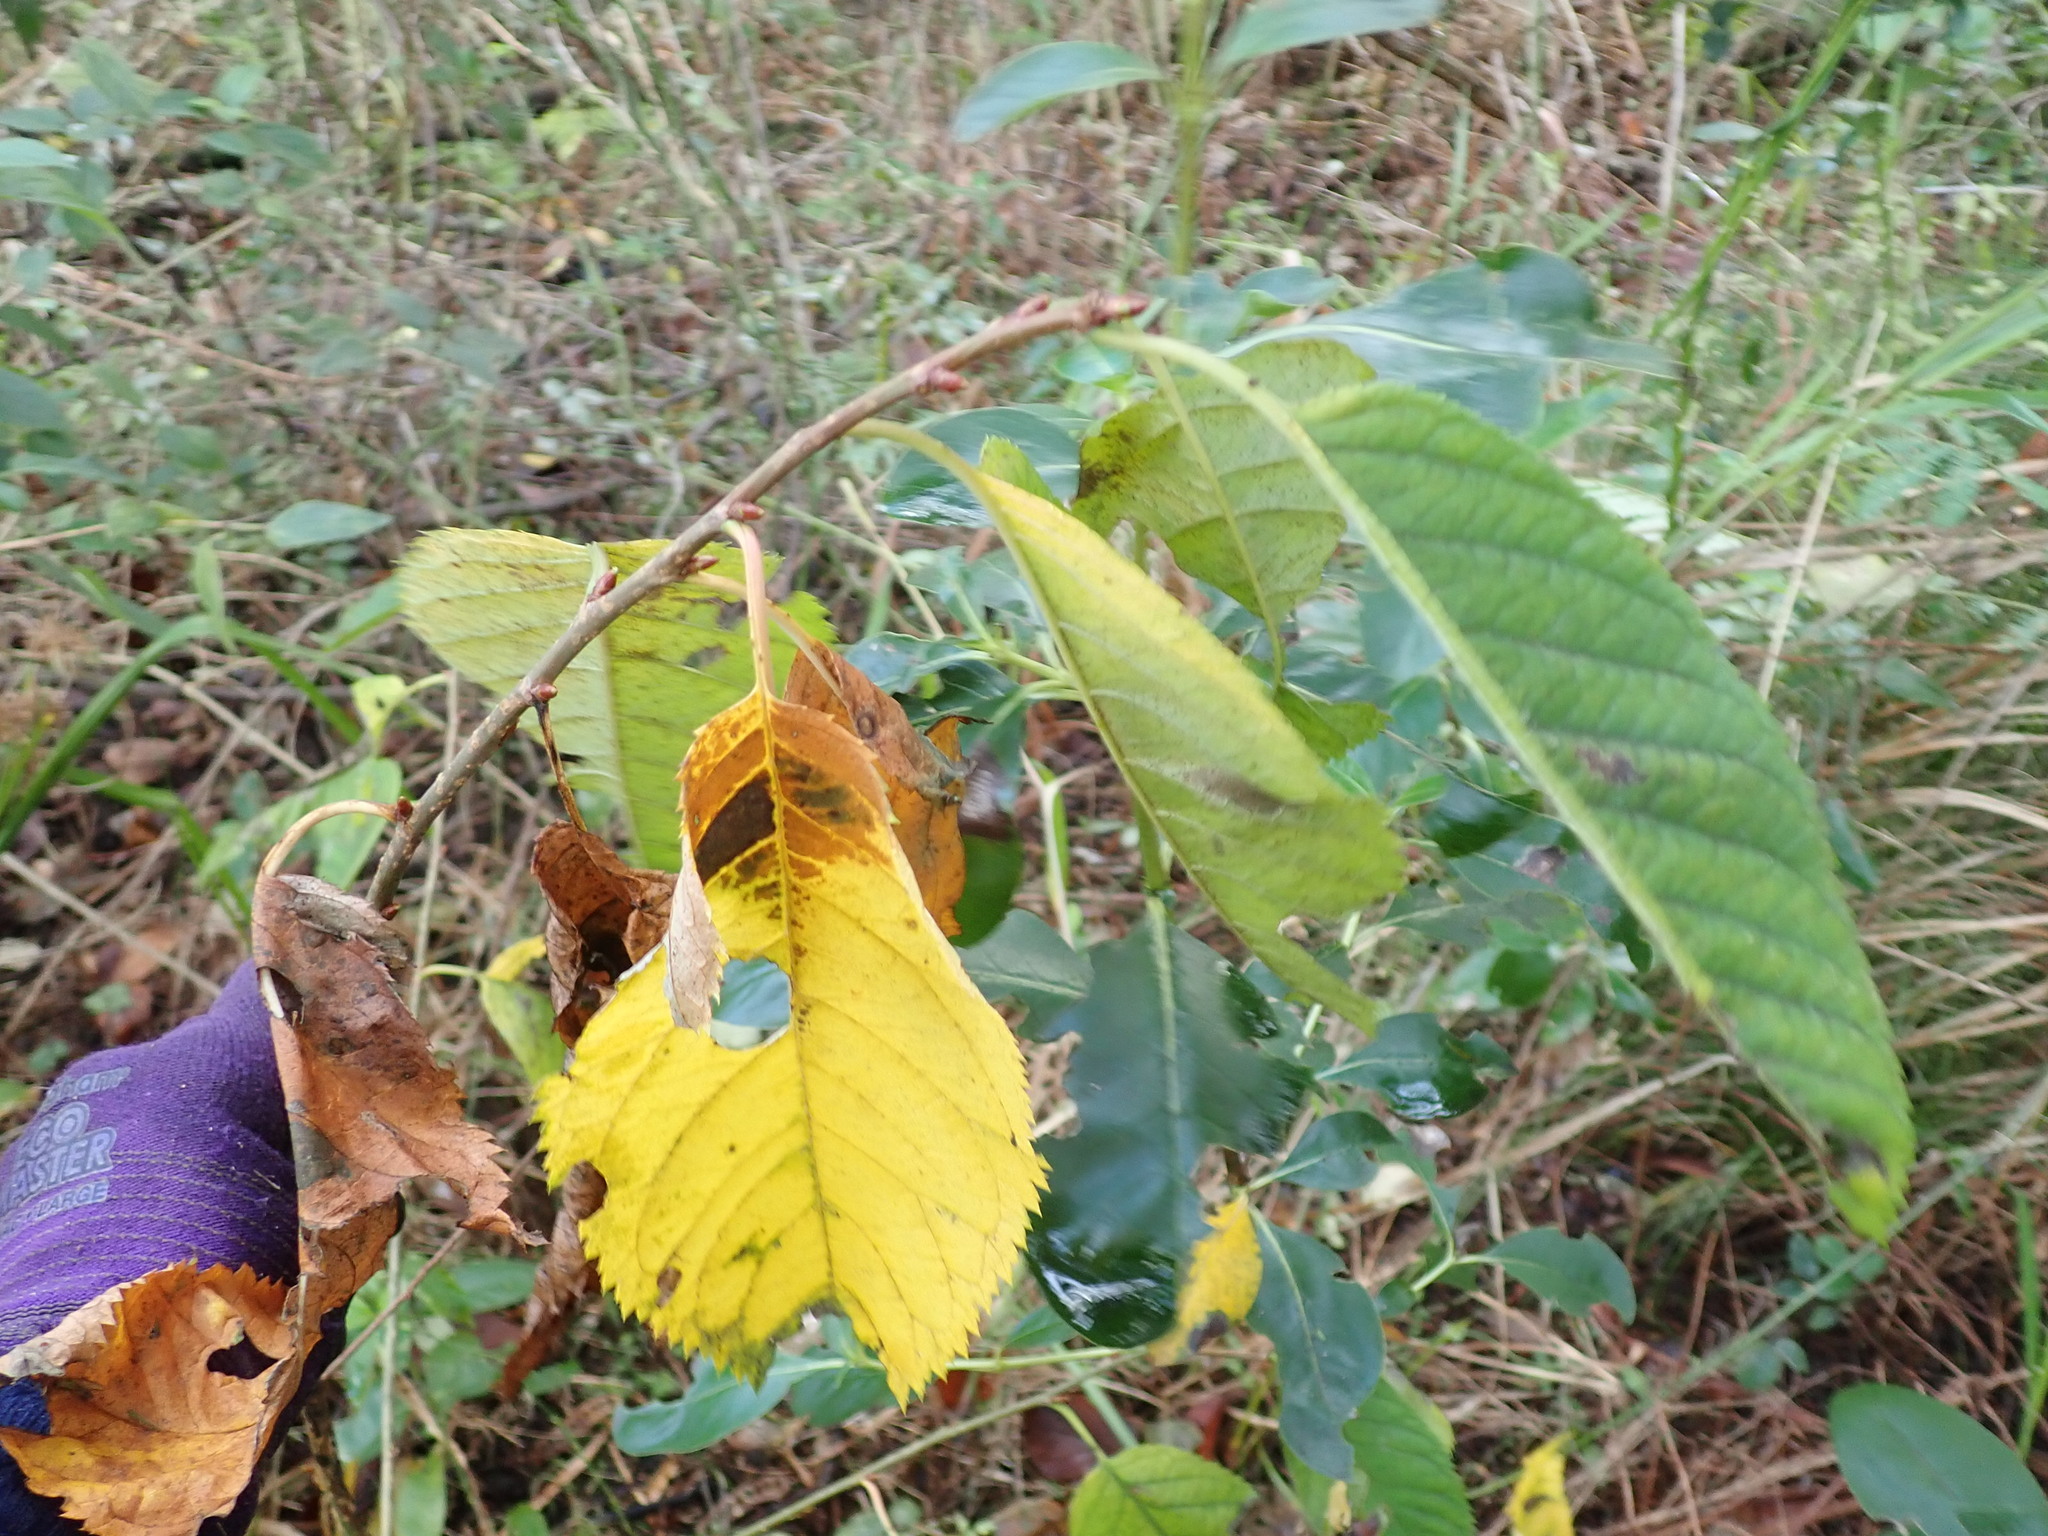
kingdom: Plantae
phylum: Tracheophyta
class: Magnoliopsida
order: Rosales
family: Rosaceae
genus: Prunus
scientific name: Prunus serrulata
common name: Japanese cherry
